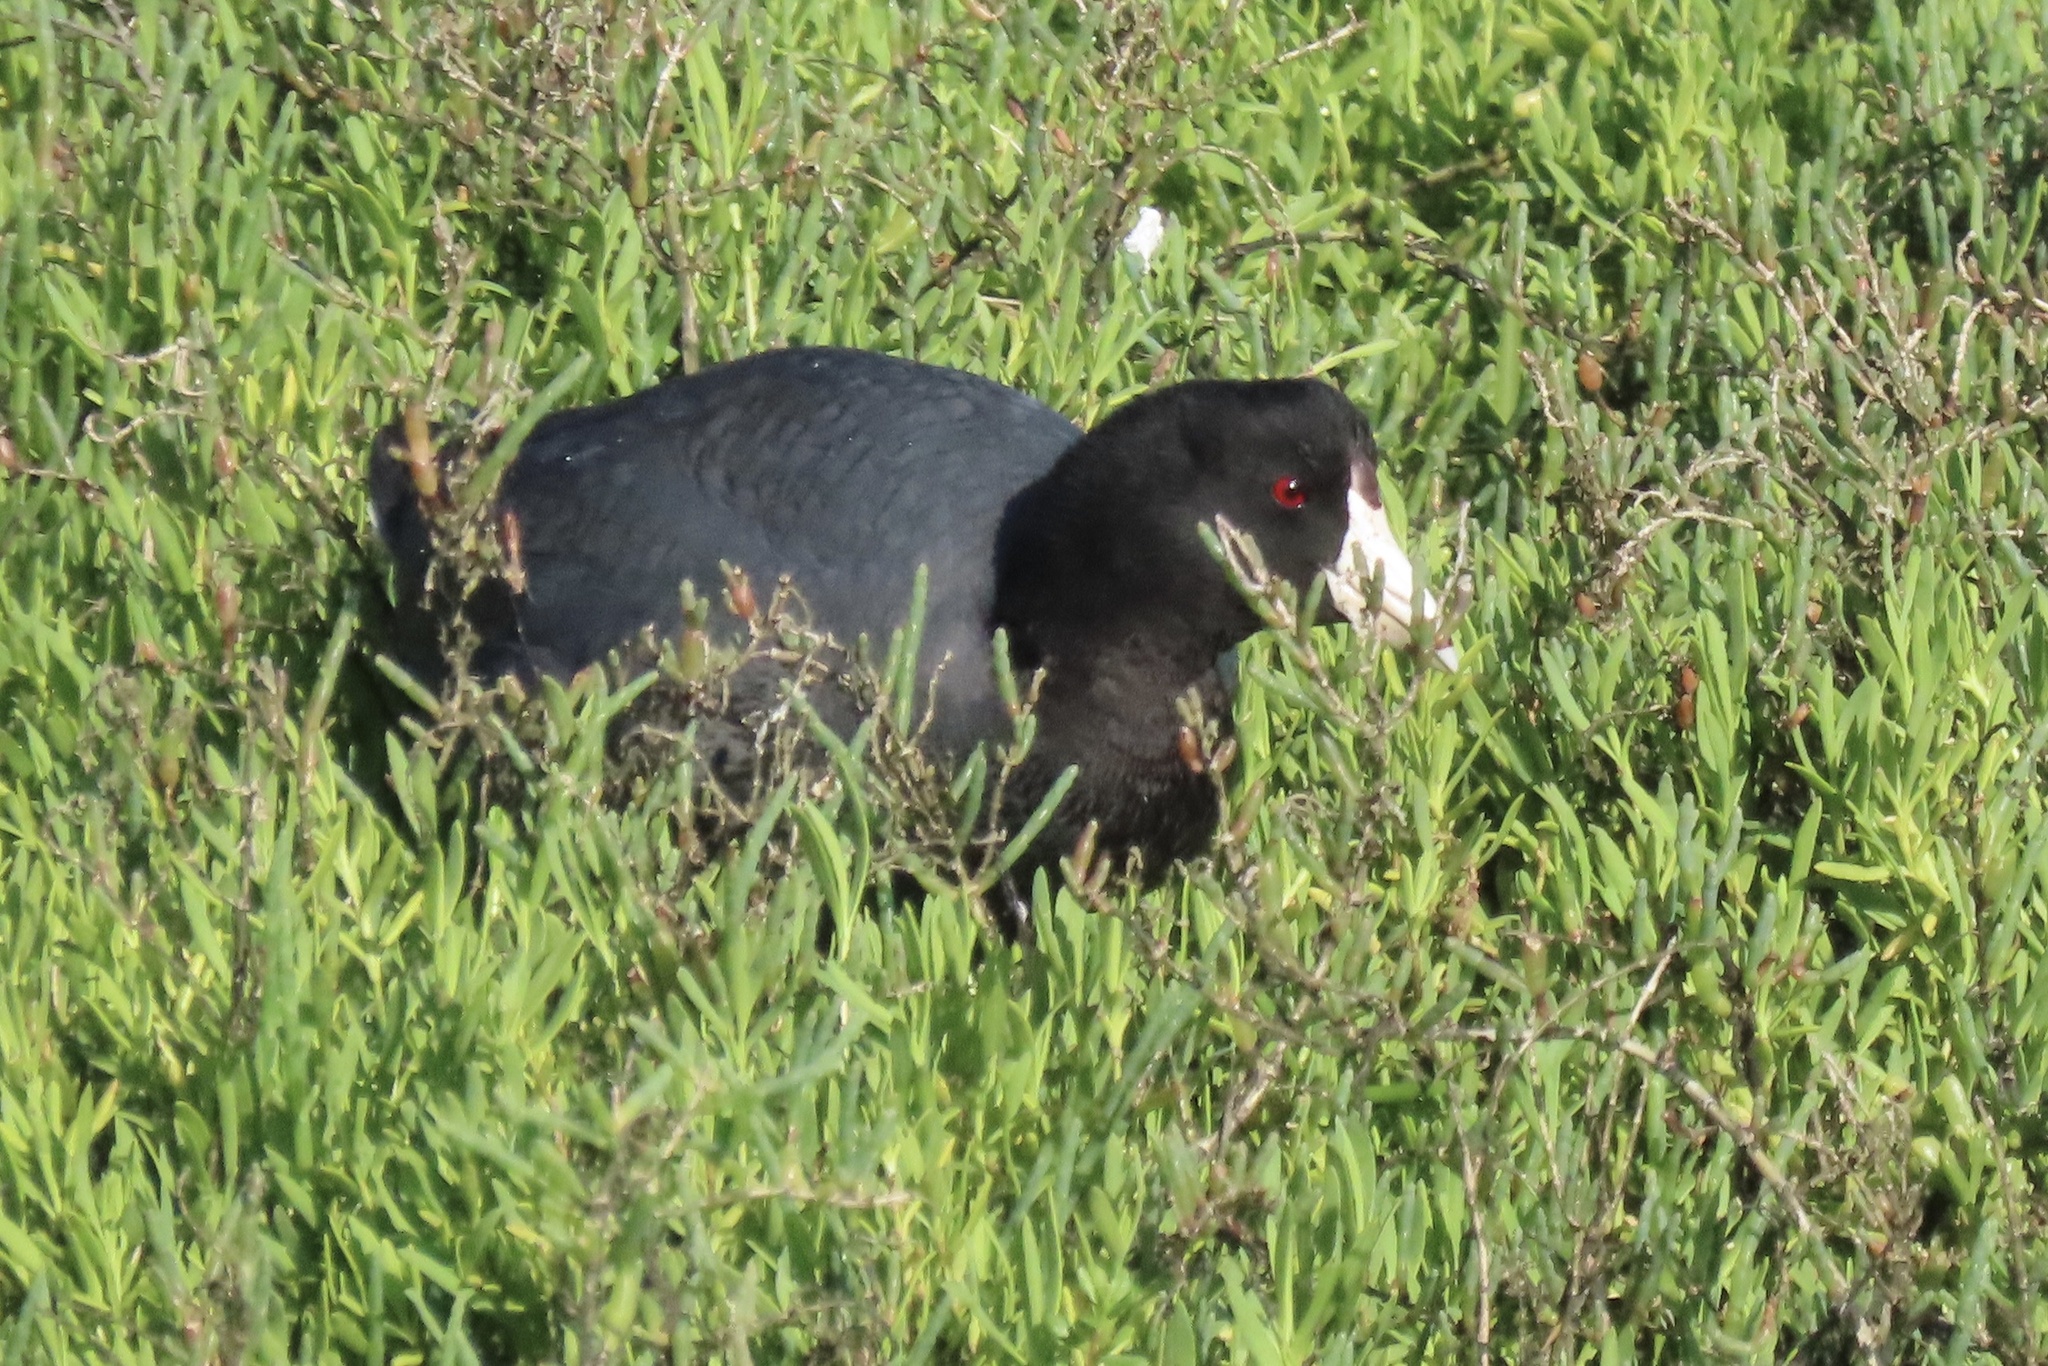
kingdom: Animalia
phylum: Chordata
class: Aves
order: Gruiformes
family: Rallidae
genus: Fulica
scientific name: Fulica americana
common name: American coot
